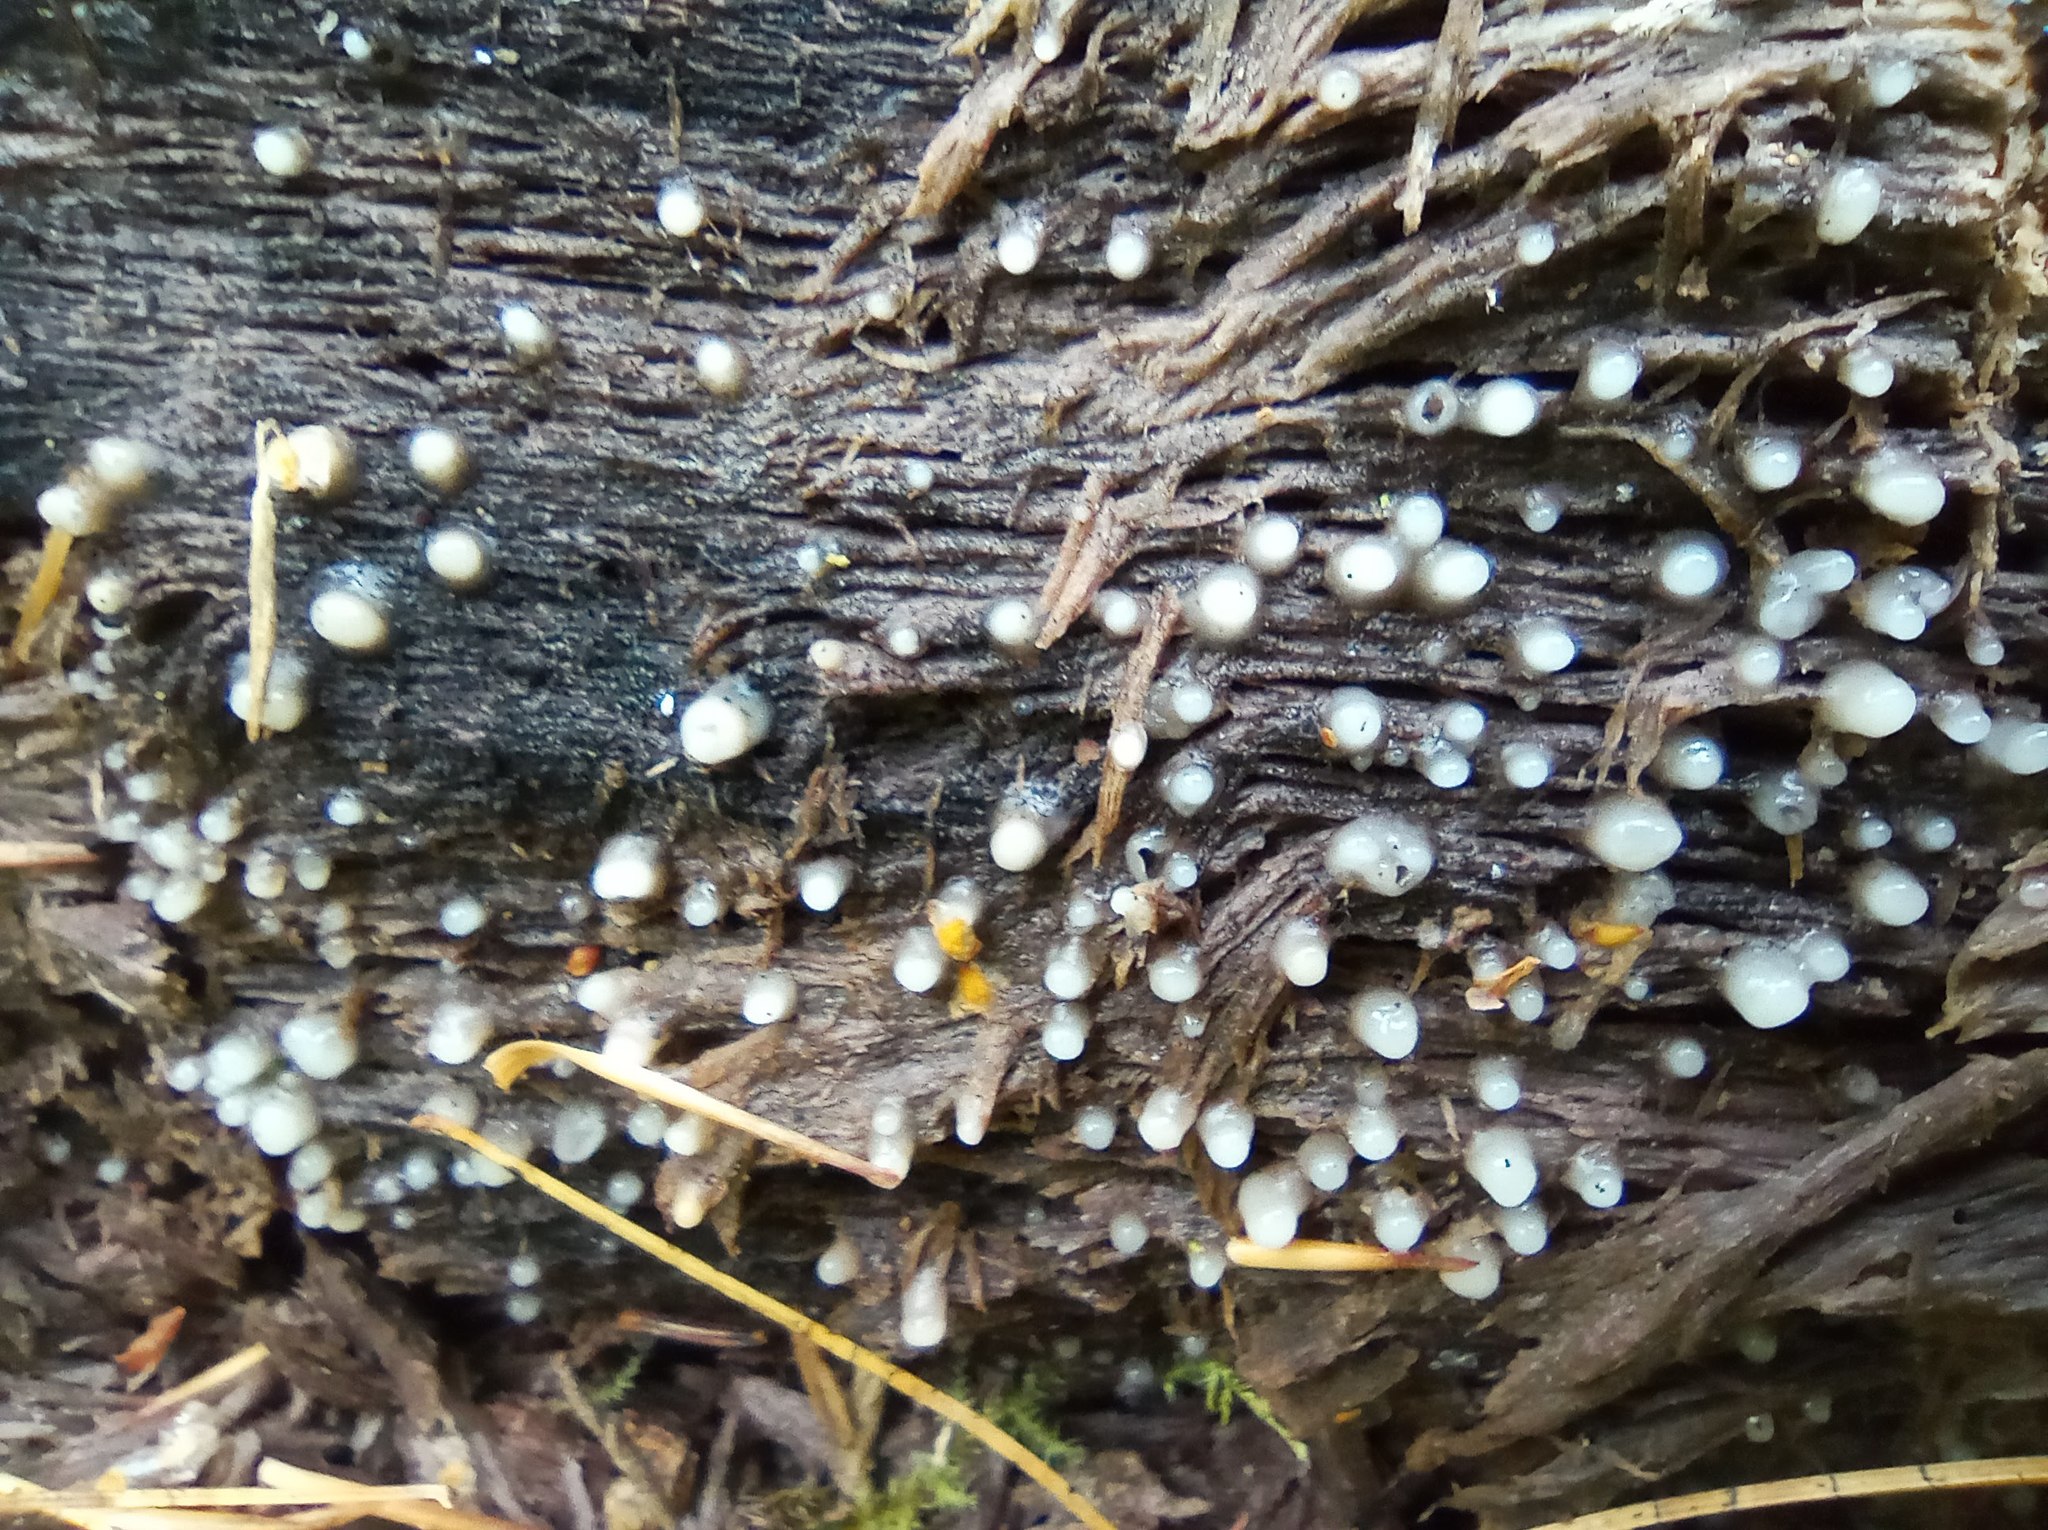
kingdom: Fungi
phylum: Basidiomycota
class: Atractiellomycetes
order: Atractiellales
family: Phleogenaceae
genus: Helicogloea
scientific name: Helicogloea compressa
